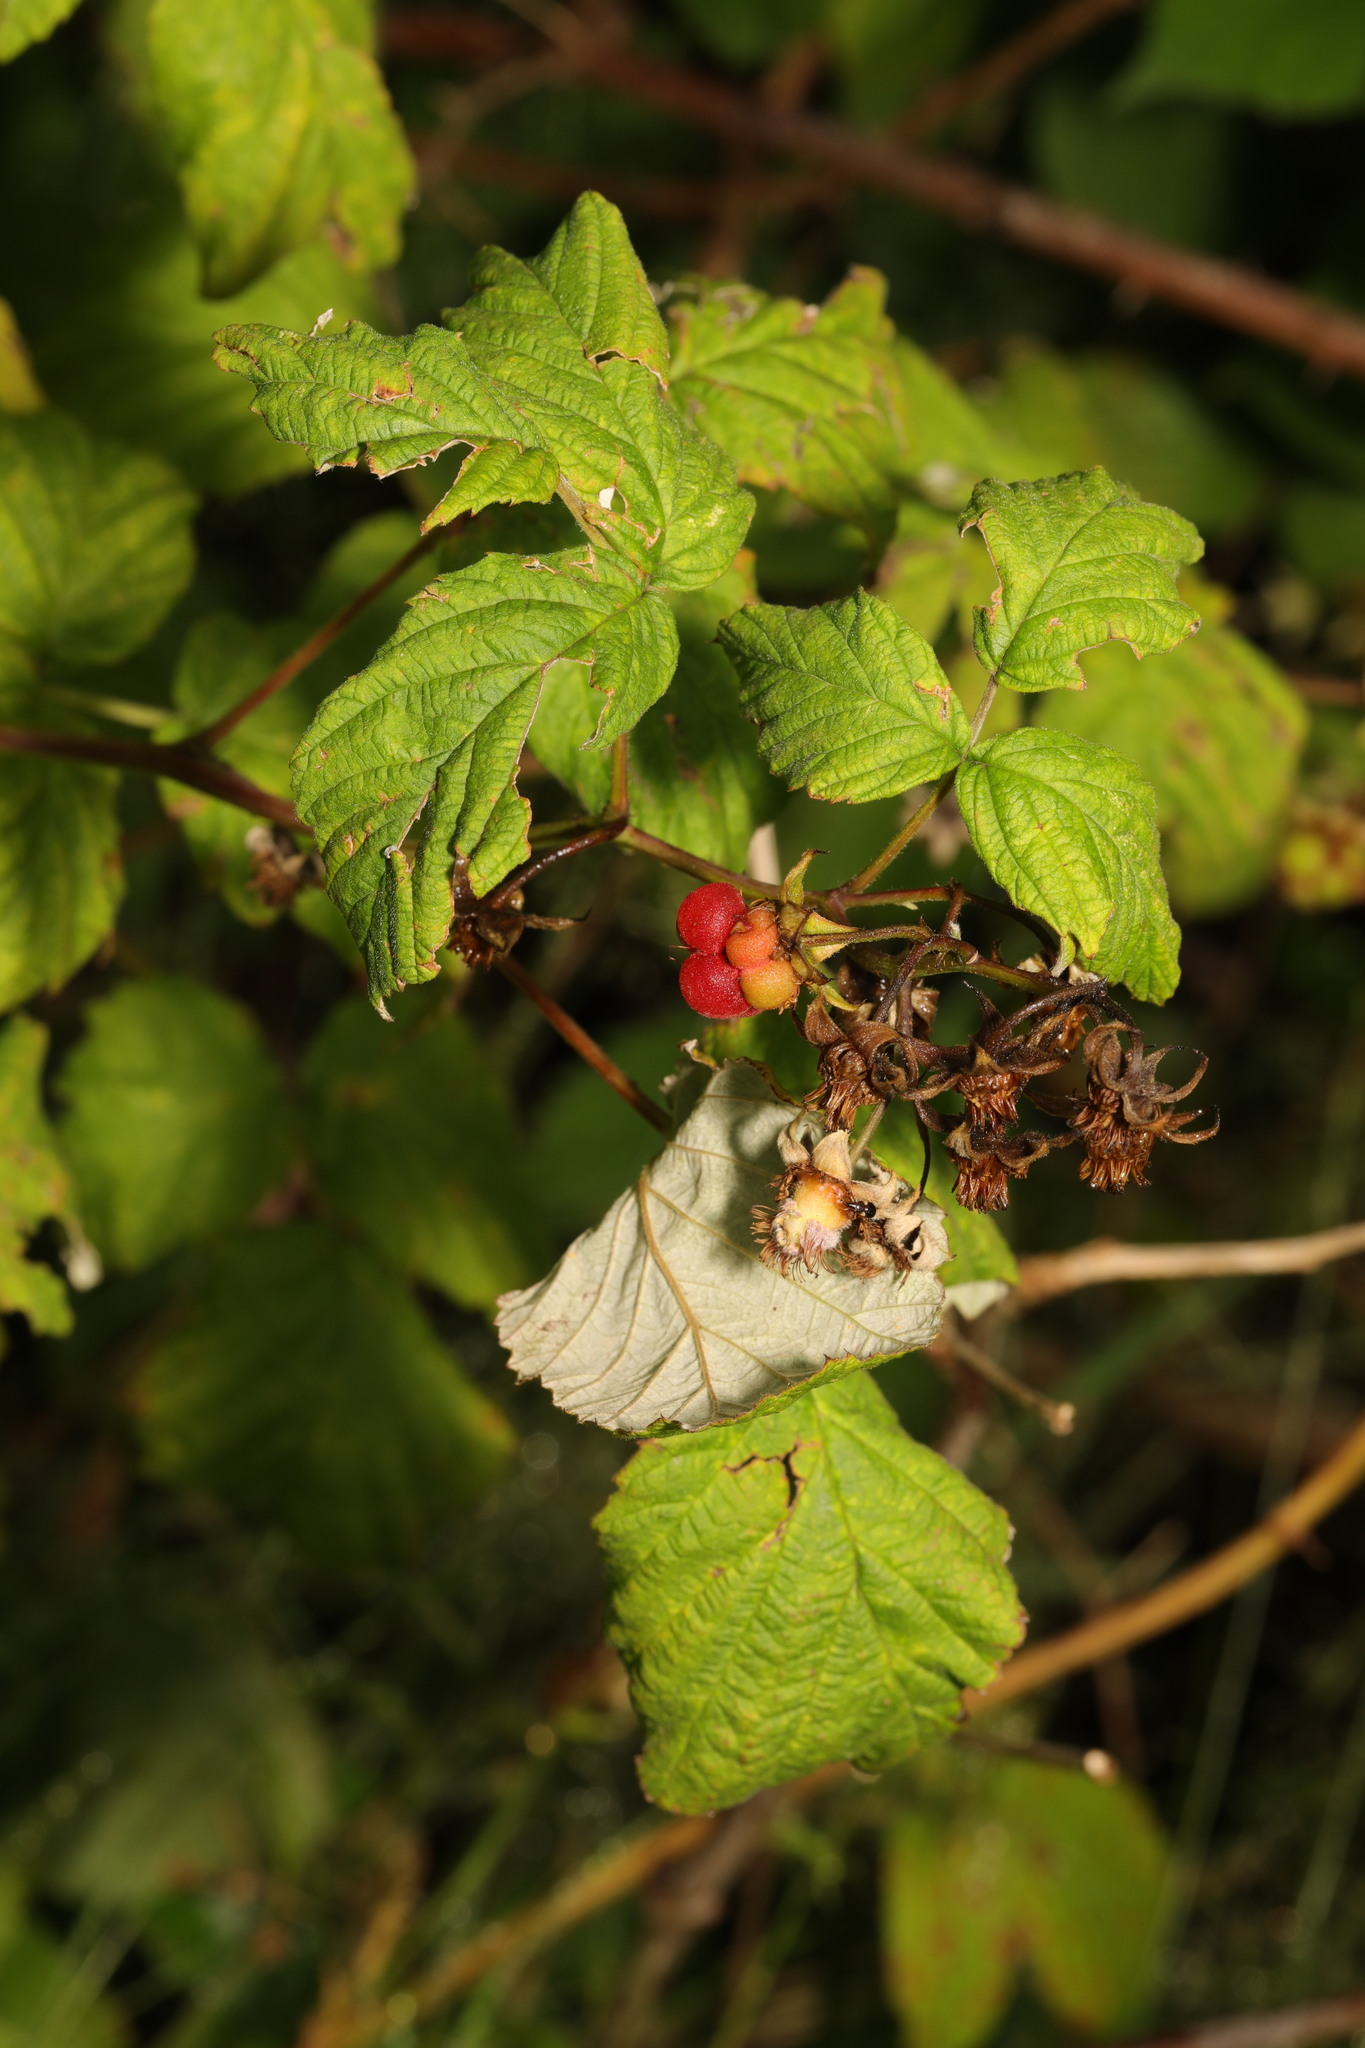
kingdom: Plantae
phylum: Tracheophyta
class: Magnoliopsida
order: Rosales
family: Rosaceae
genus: Rubus
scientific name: Rubus idaeus
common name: Raspberry
